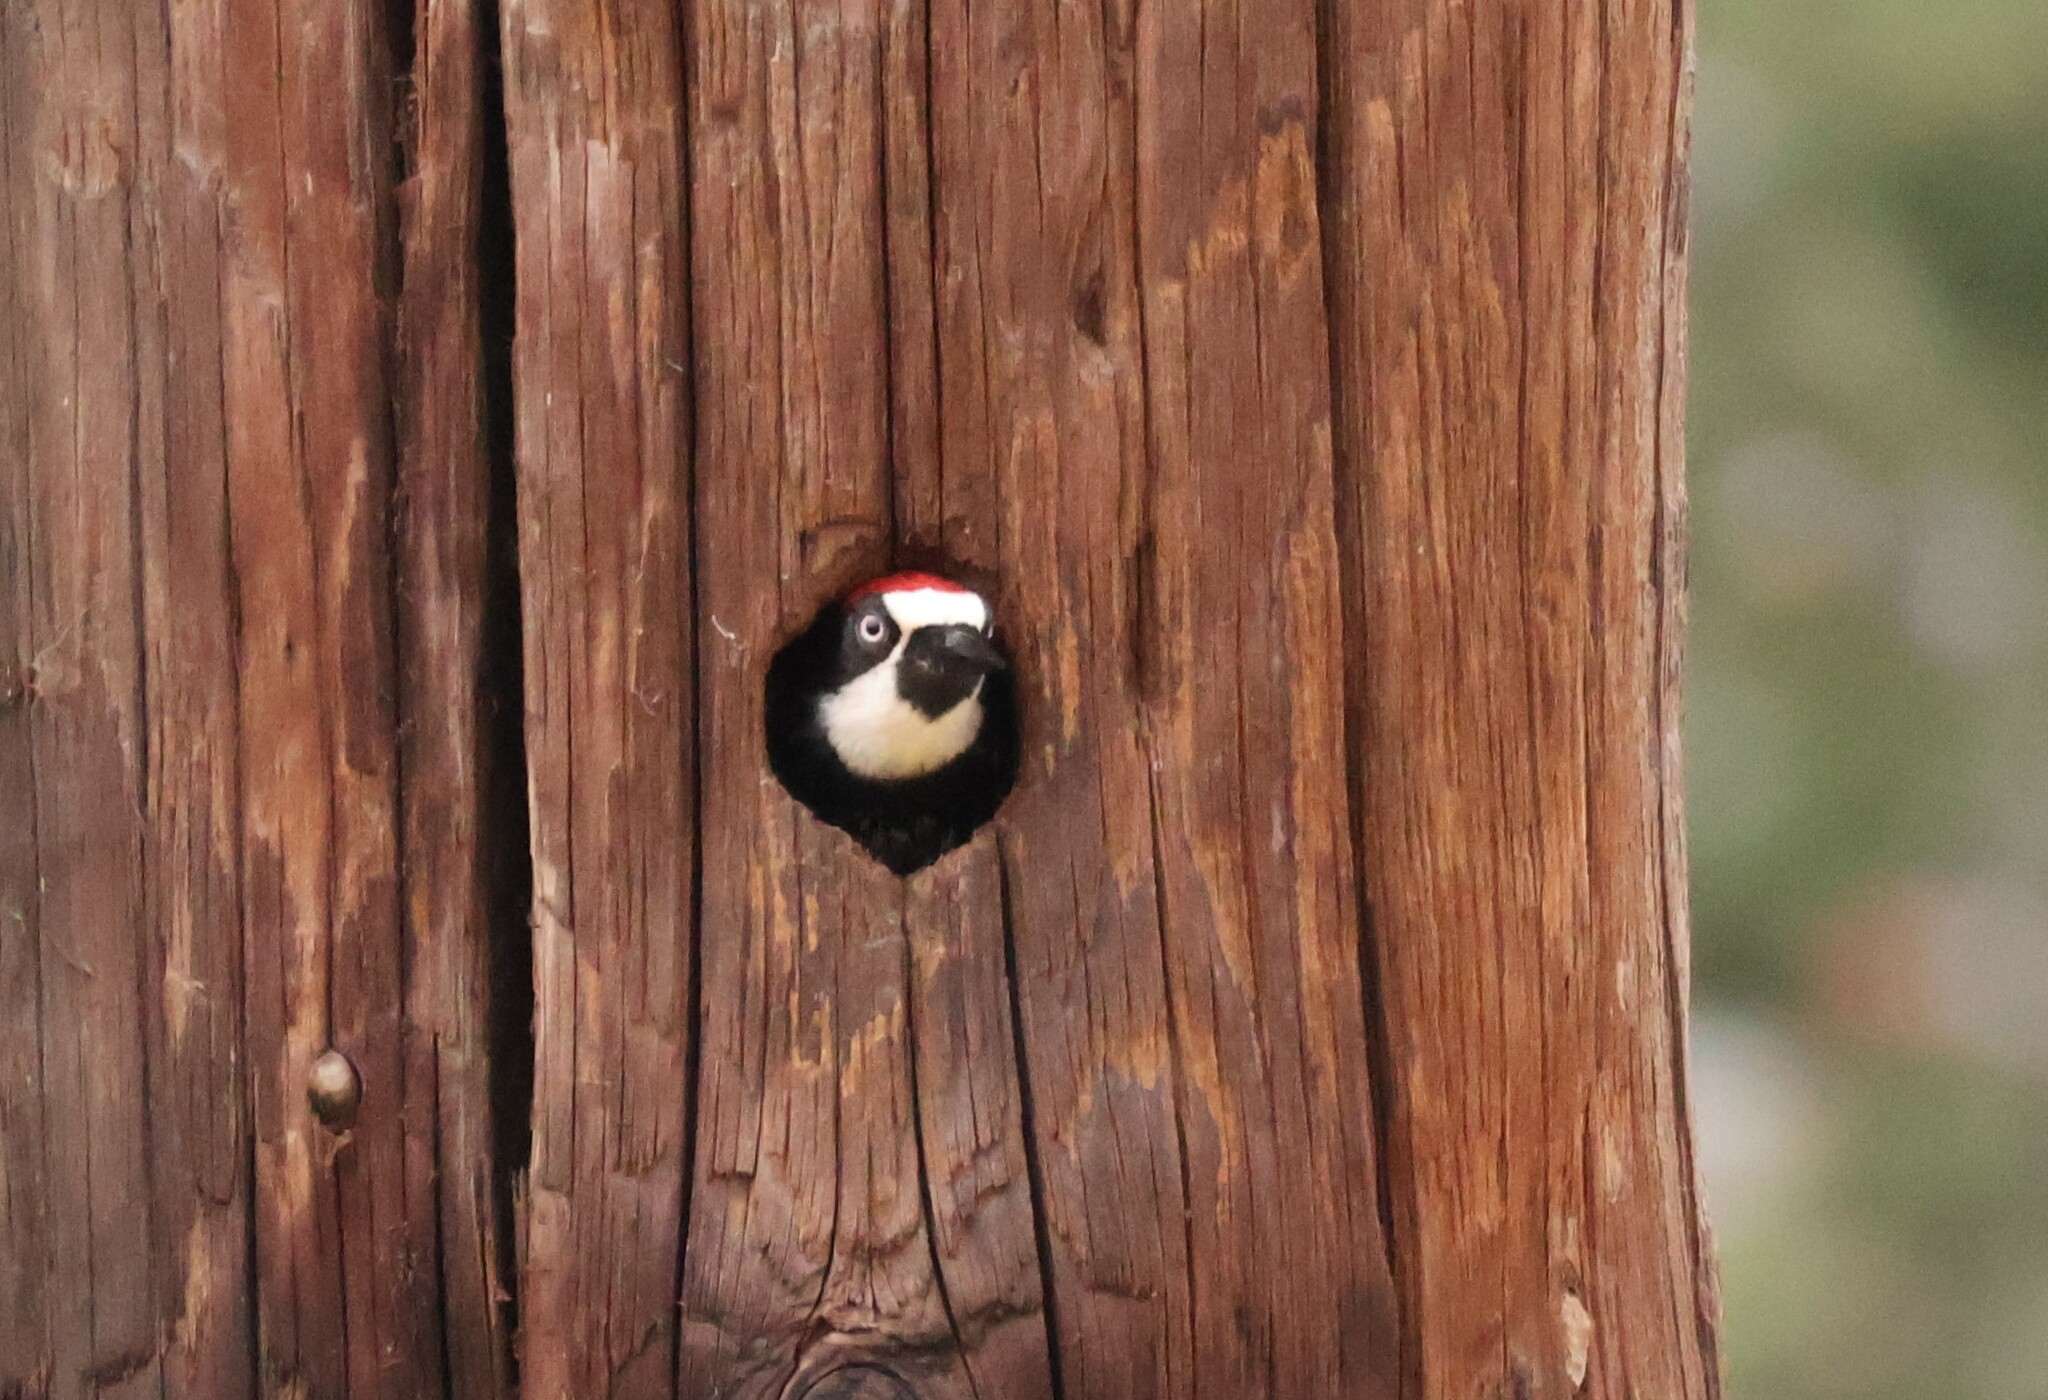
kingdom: Animalia
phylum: Chordata
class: Aves
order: Piciformes
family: Picidae
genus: Melanerpes
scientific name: Melanerpes formicivorus
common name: Acorn woodpecker
